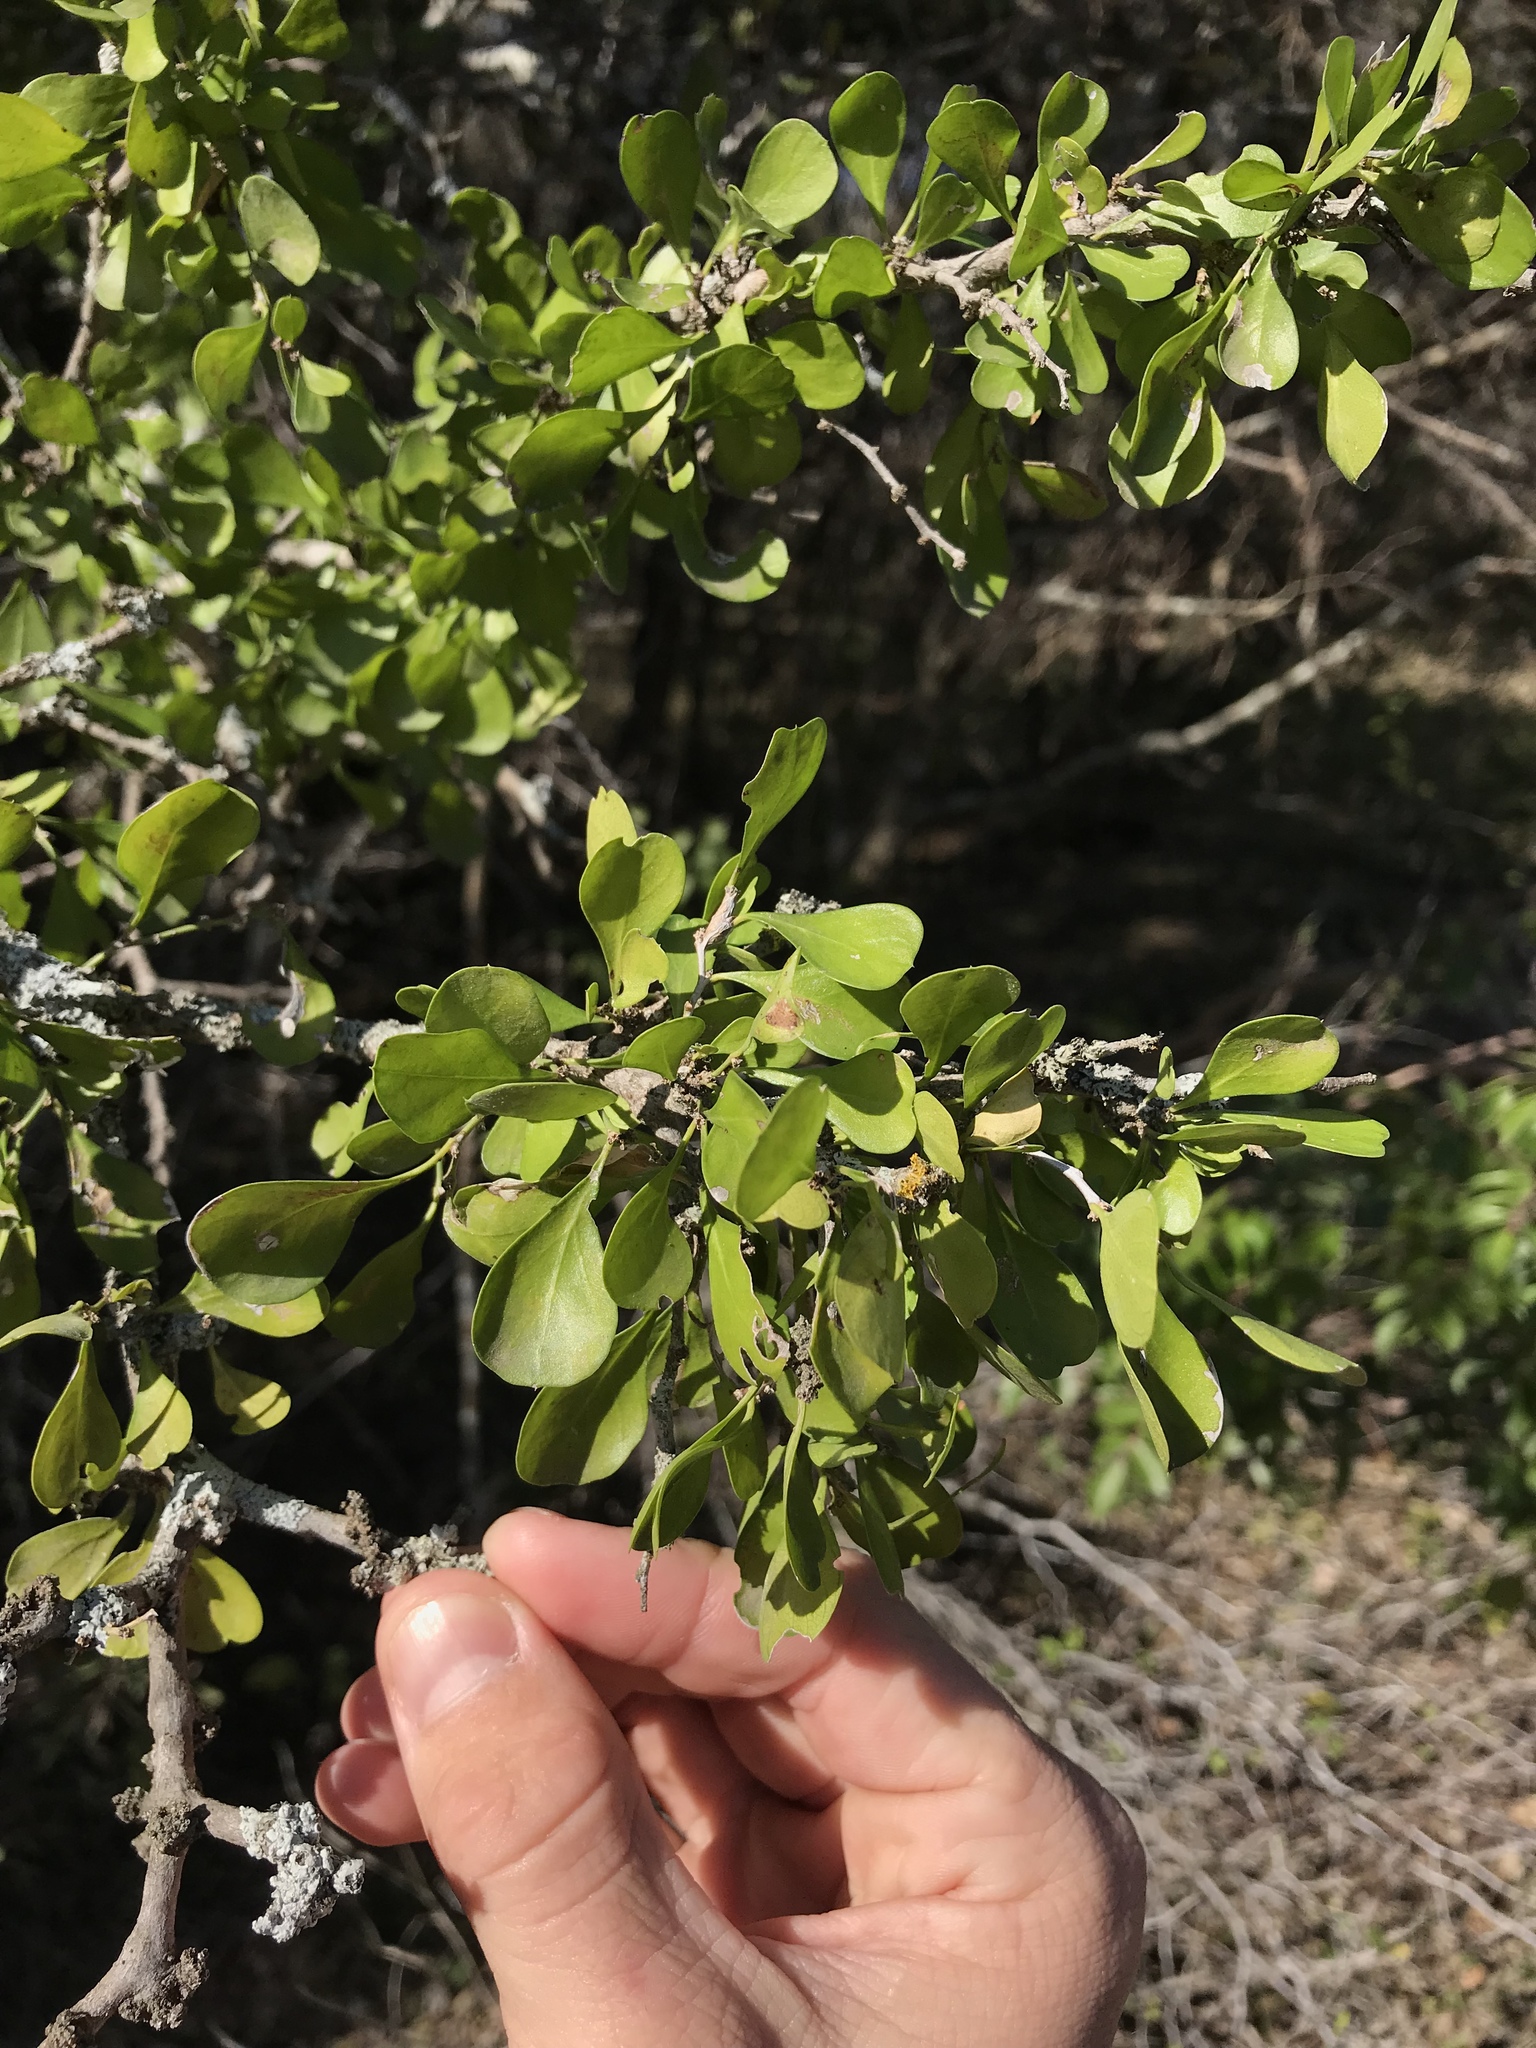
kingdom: Plantae
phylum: Tracheophyta
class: Magnoliopsida
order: Rosales
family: Rhamnaceae
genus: Condalia
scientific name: Condalia hookeri
